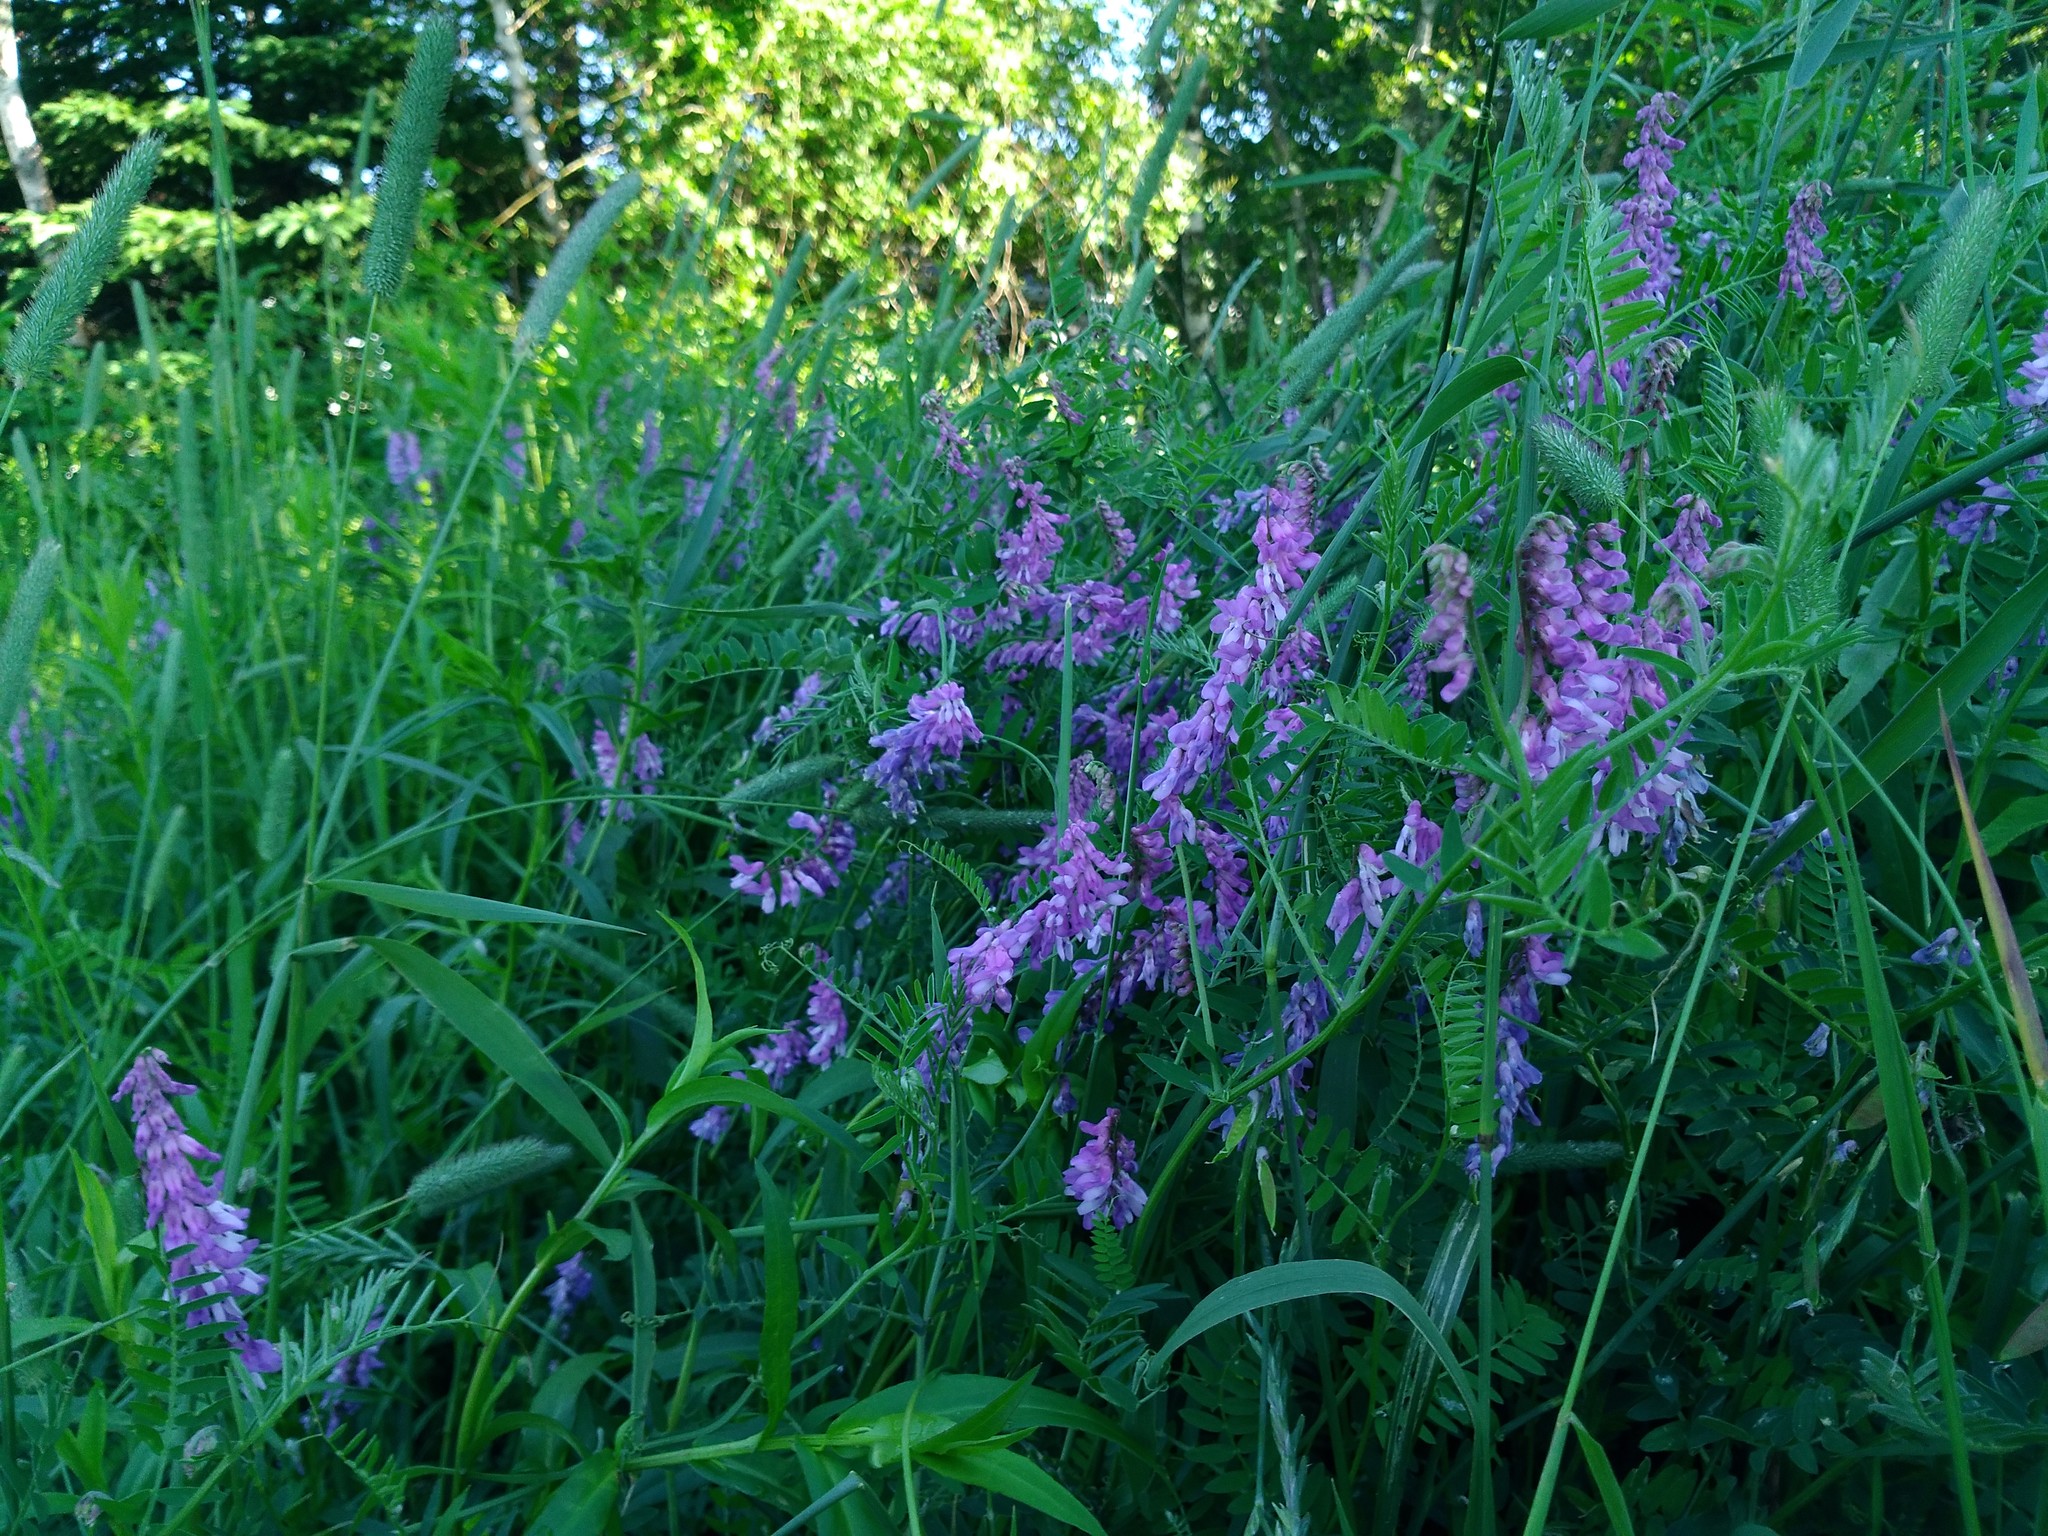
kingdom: Plantae
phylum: Tracheophyta
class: Magnoliopsida
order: Fabales
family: Fabaceae
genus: Vicia
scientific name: Vicia cracca
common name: Bird vetch
